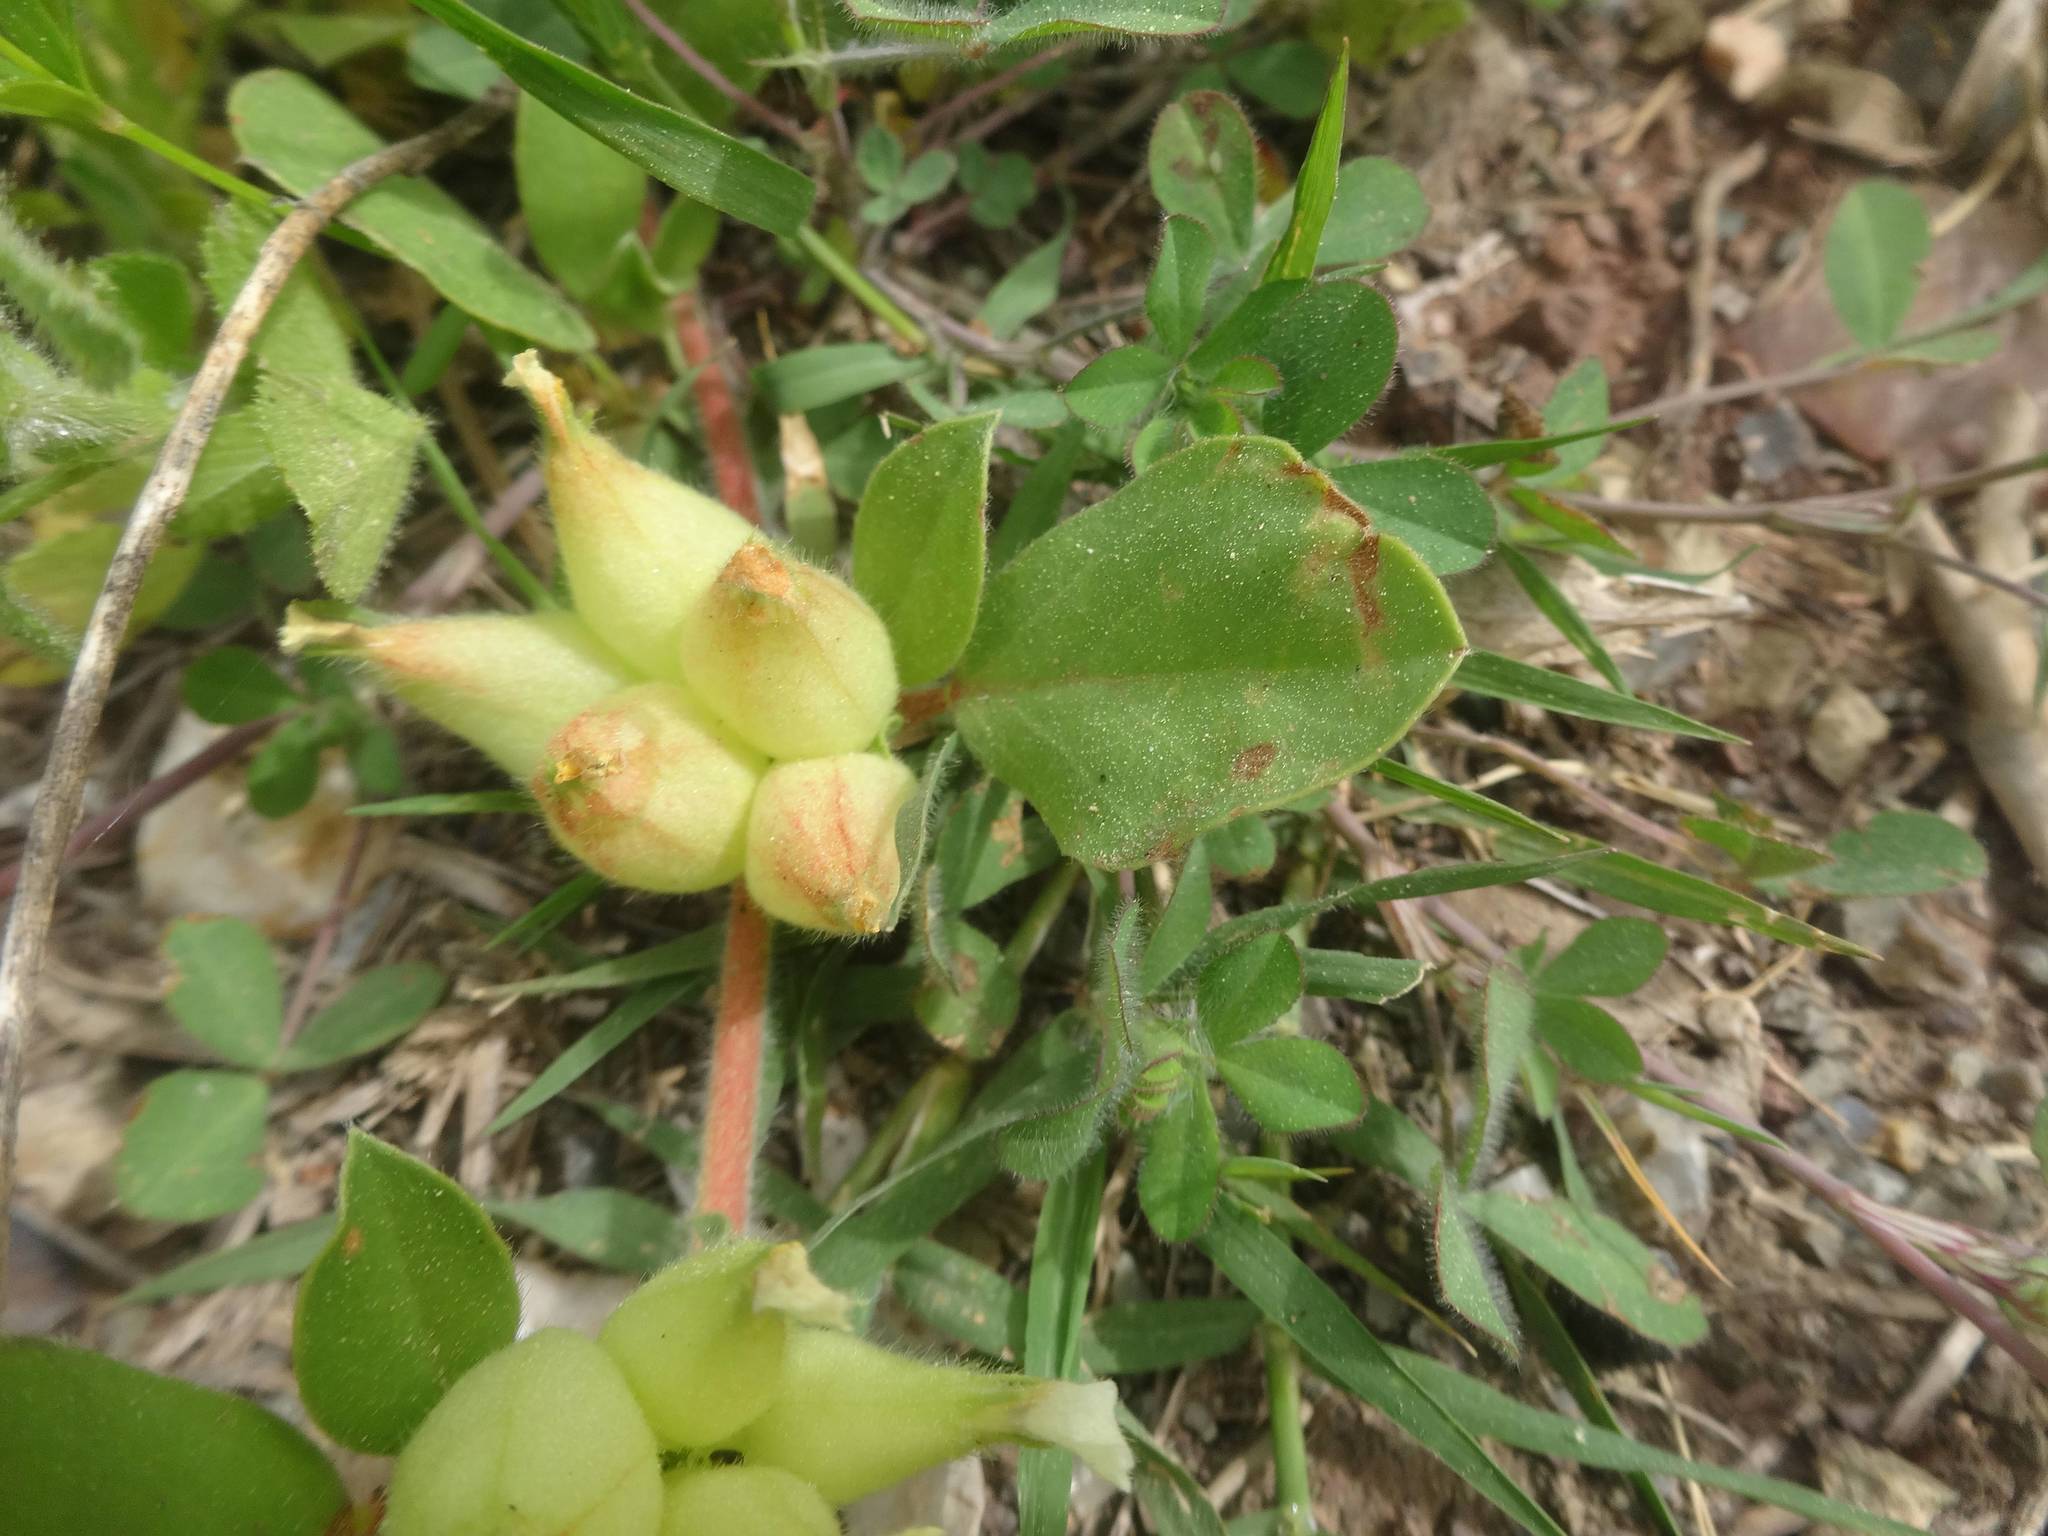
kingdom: Plantae
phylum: Tracheophyta
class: Magnoliopsida
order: Fabales
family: Fabaceae
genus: Tripodion
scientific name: Tripodion tetraphyllum
